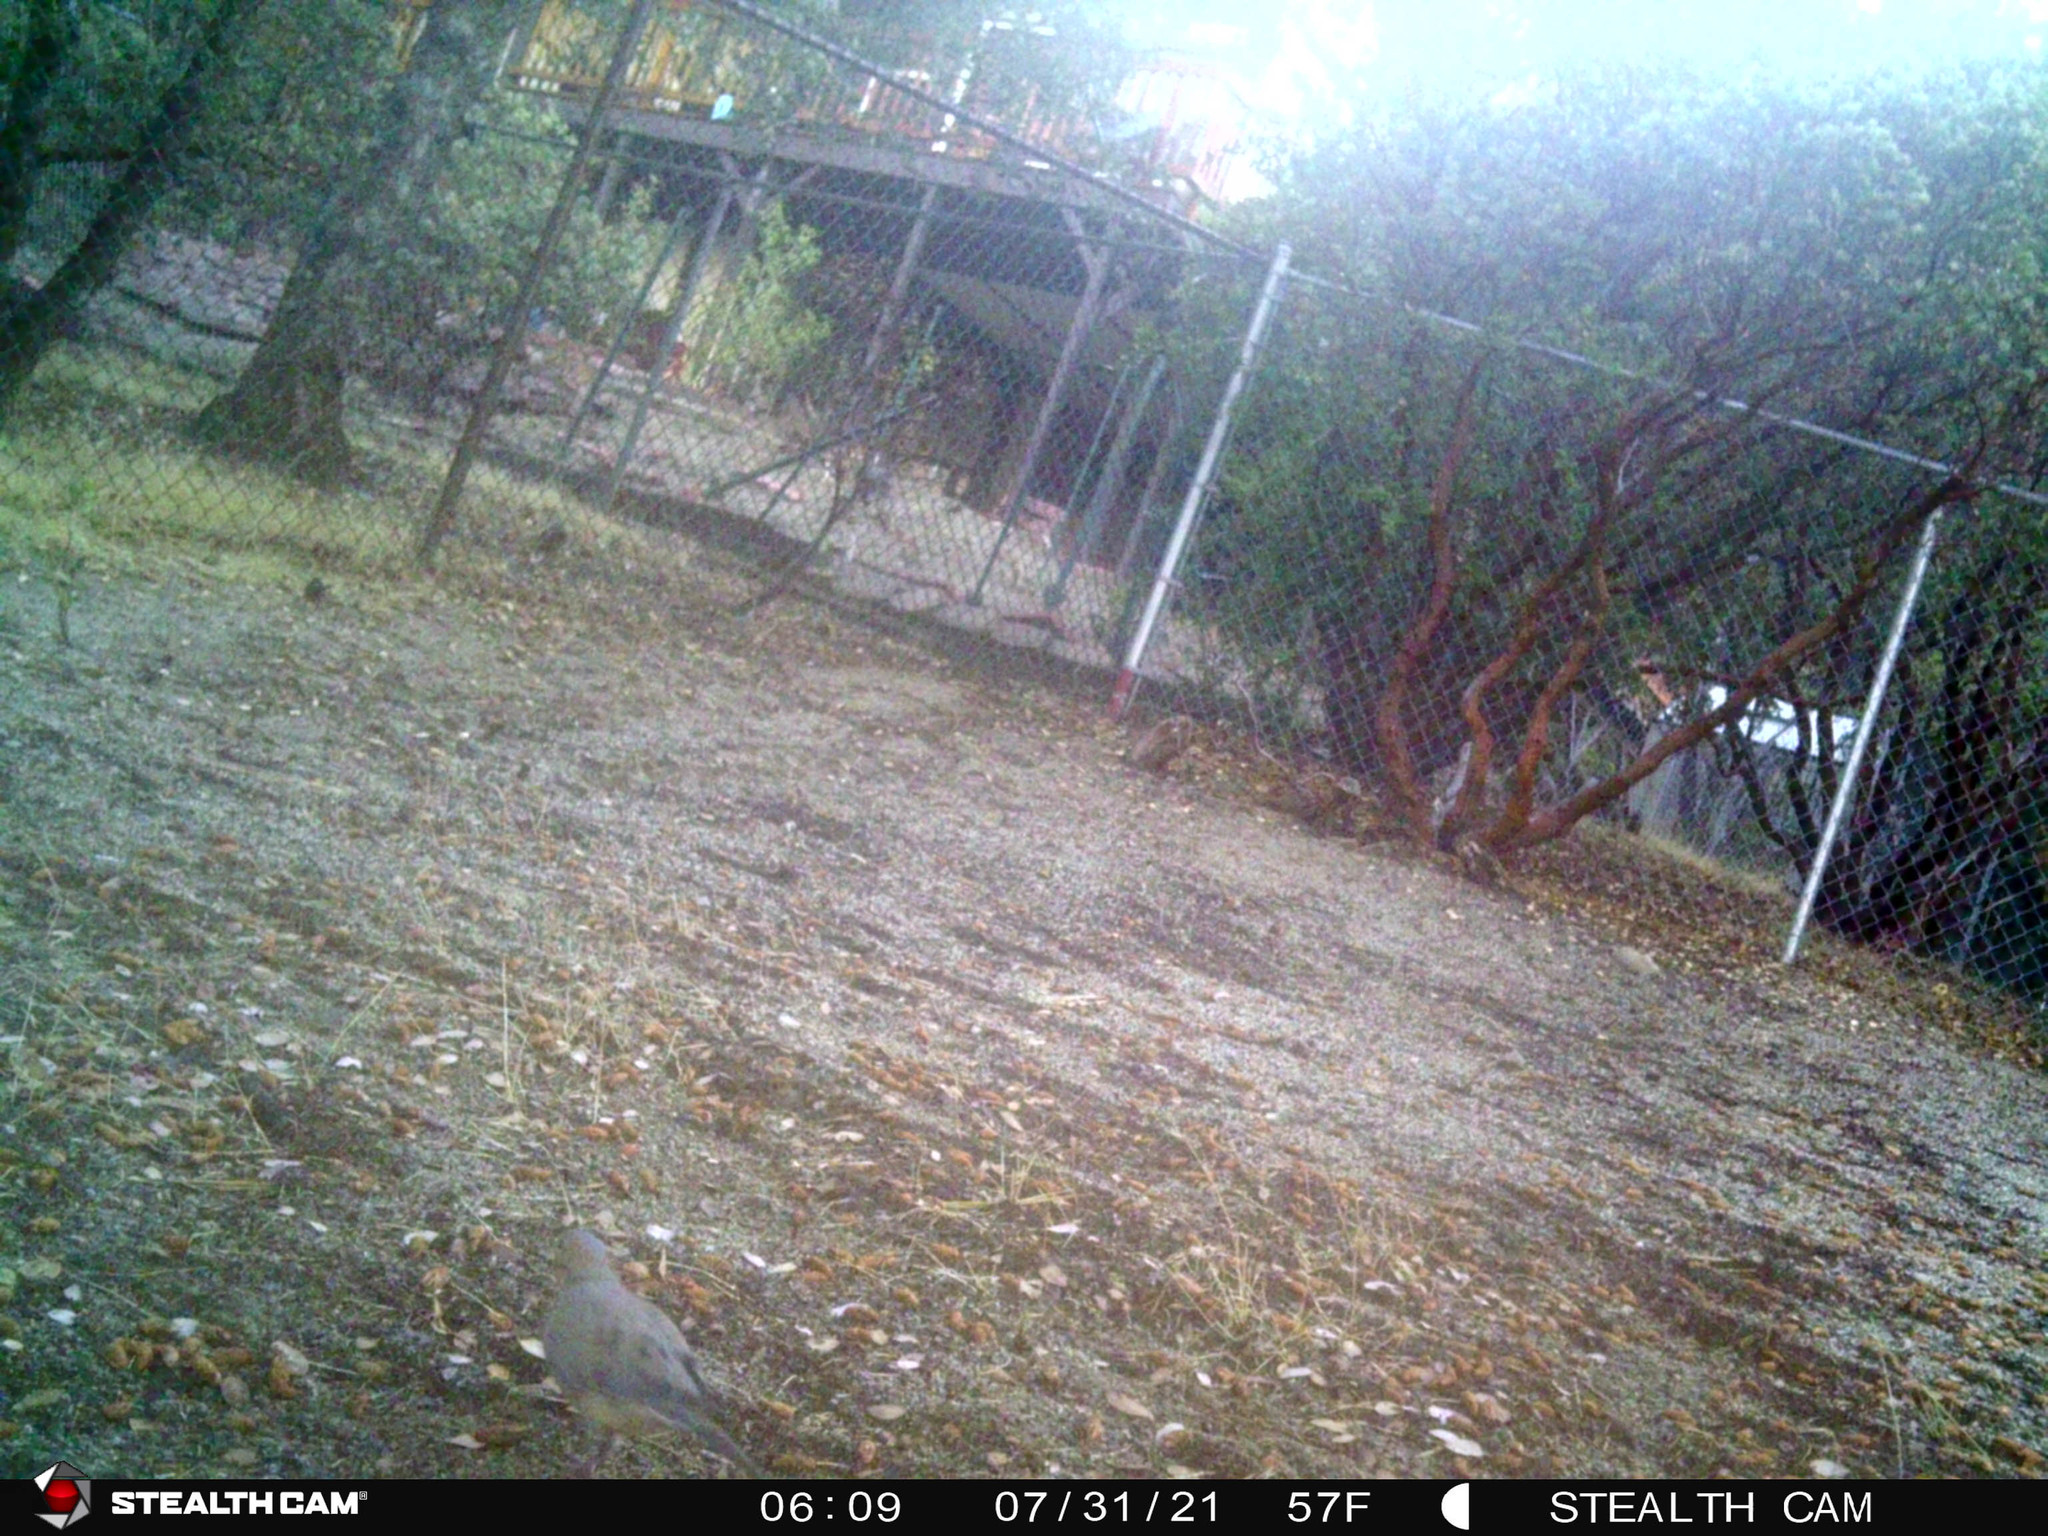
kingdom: Animalia
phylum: Chordata
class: Aves
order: Columbiformes
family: Columbidae
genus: Zenaida
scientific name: Zenaida macroura
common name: Mourning dove
